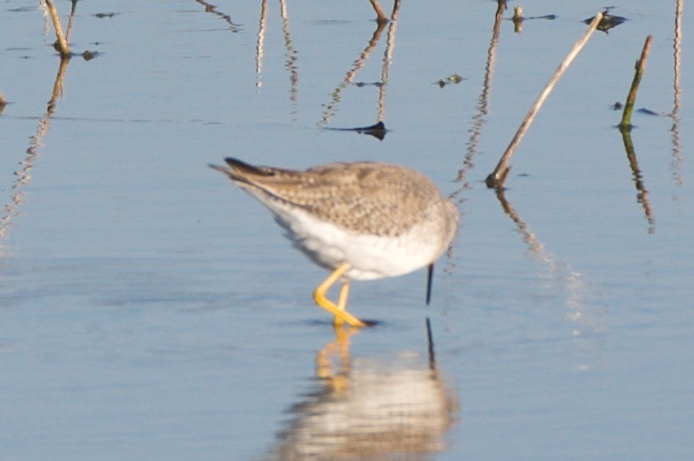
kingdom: Animalia
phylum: Chordata
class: Aves
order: Charadriiformes
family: Scolopacidae
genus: Tringa
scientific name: Tringa melanoleuca
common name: Greater yellowlegs
